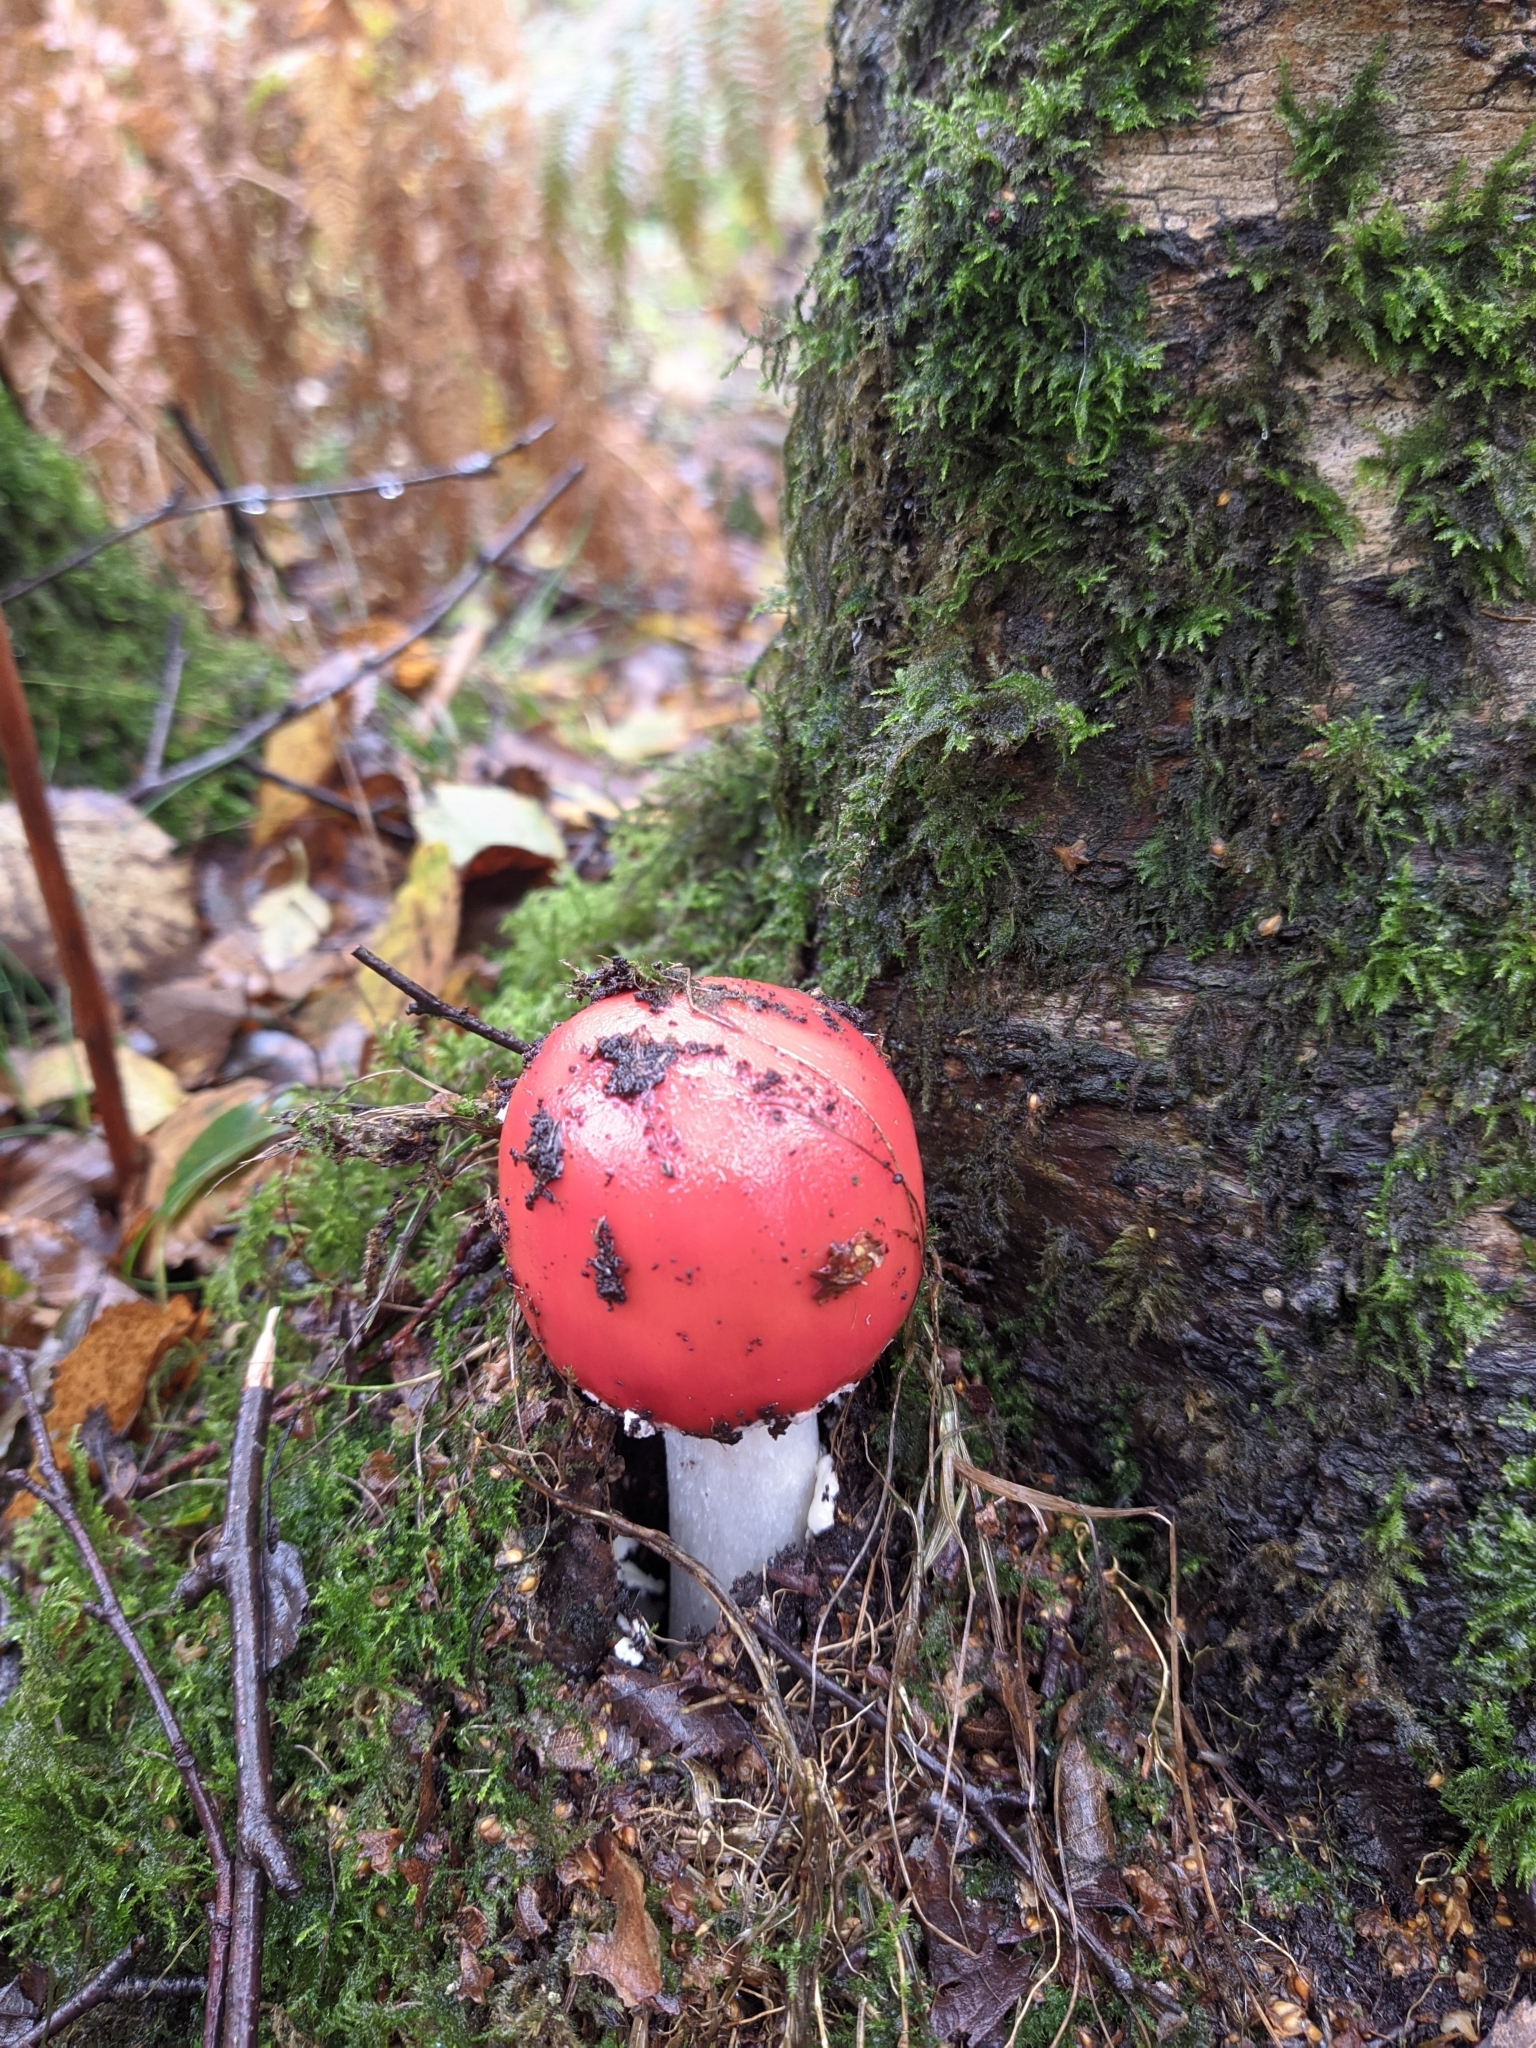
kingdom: Fungi
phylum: Basidiomycota
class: Agaricomycetes
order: Agaricales
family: Amanitaceae
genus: Amanita
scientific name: Amanita muscaria
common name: Fly agaric
